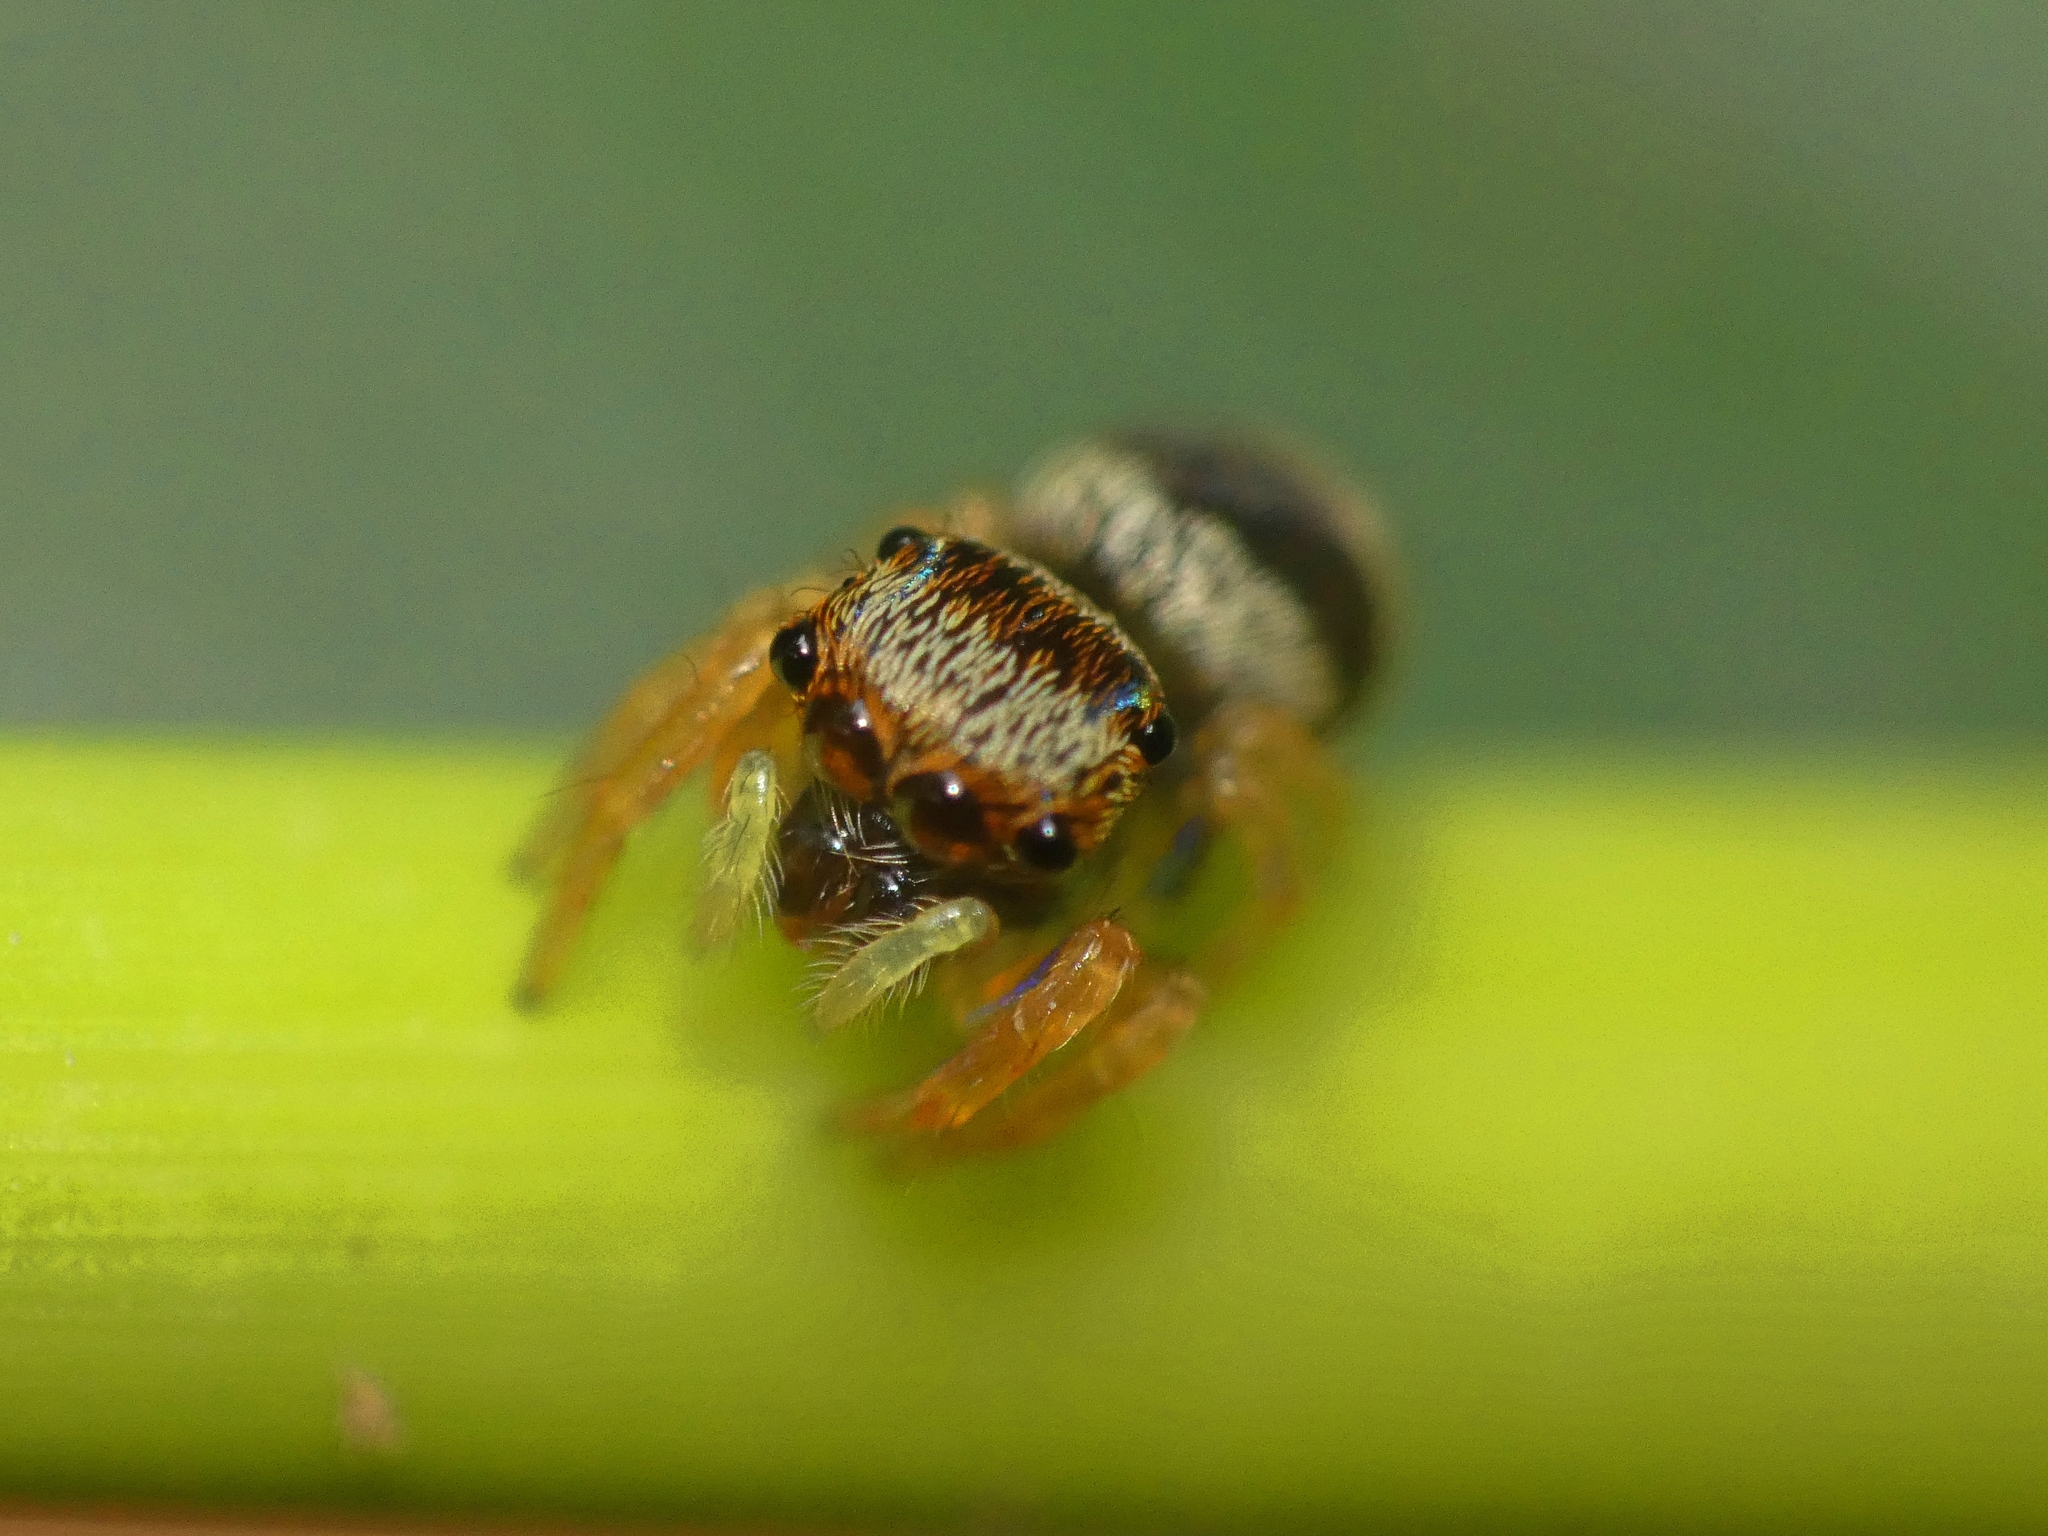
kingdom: Animalia
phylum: Arthropoda
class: Arachnida
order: Araneae
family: Salticidae
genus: Euryattus
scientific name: Euryattus bleekeri
